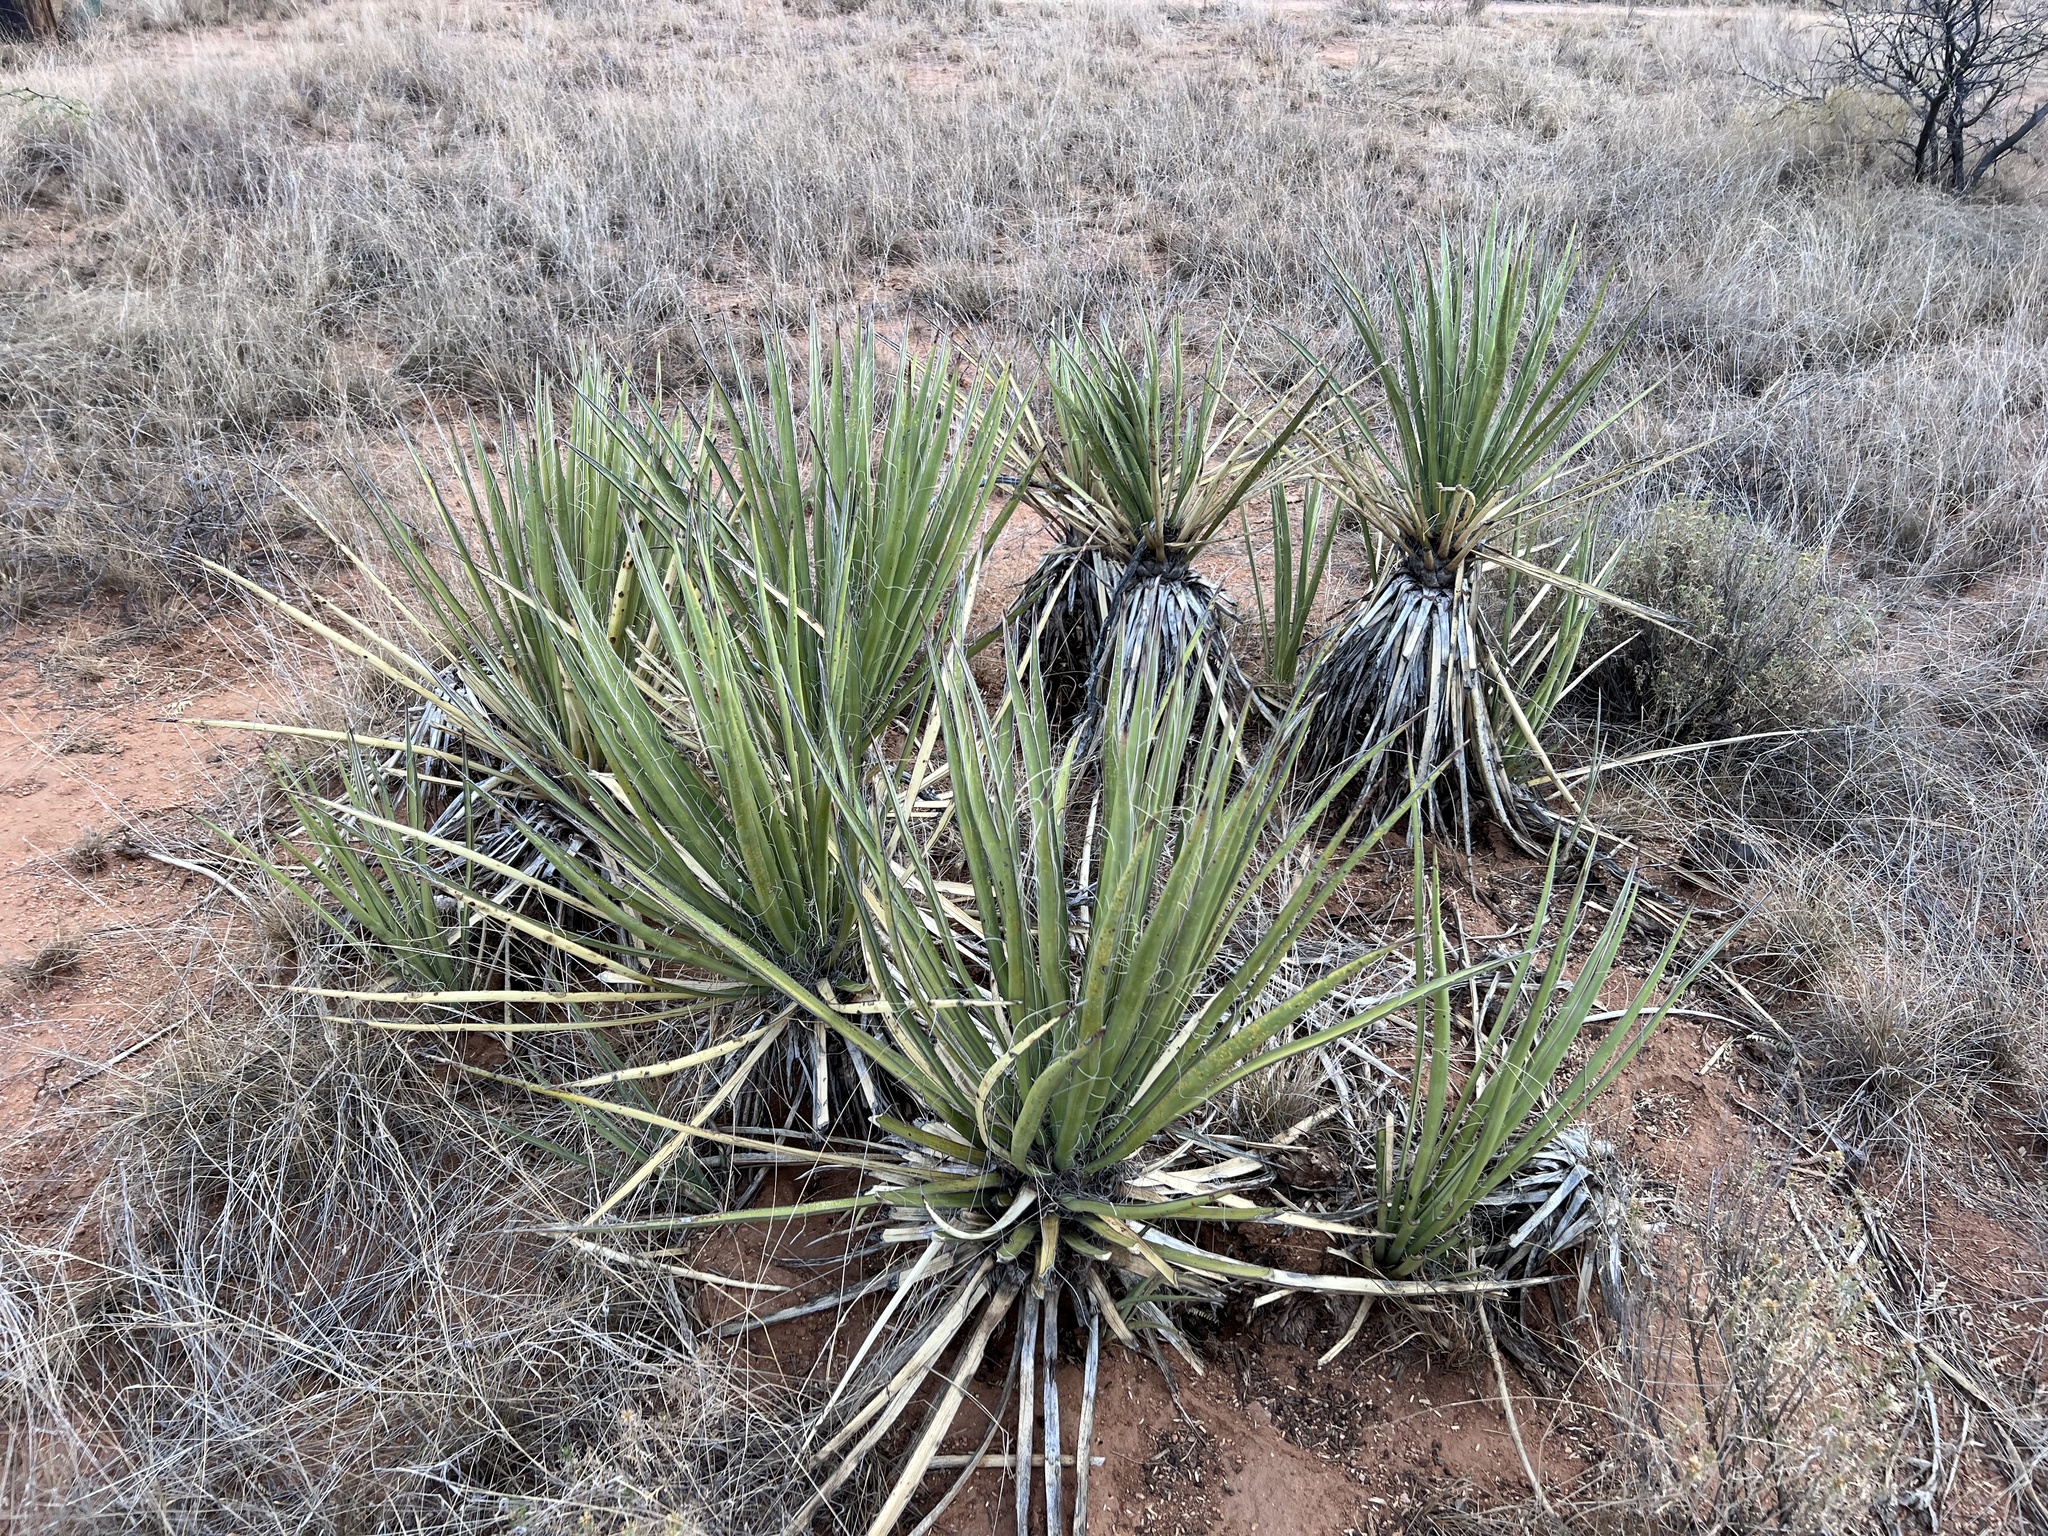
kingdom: Plantae
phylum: Tracheophyta
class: Liliopsida
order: Asparagales
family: Asparagaceae
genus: Yucca
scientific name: Yucca baccata
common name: Banana yucca
